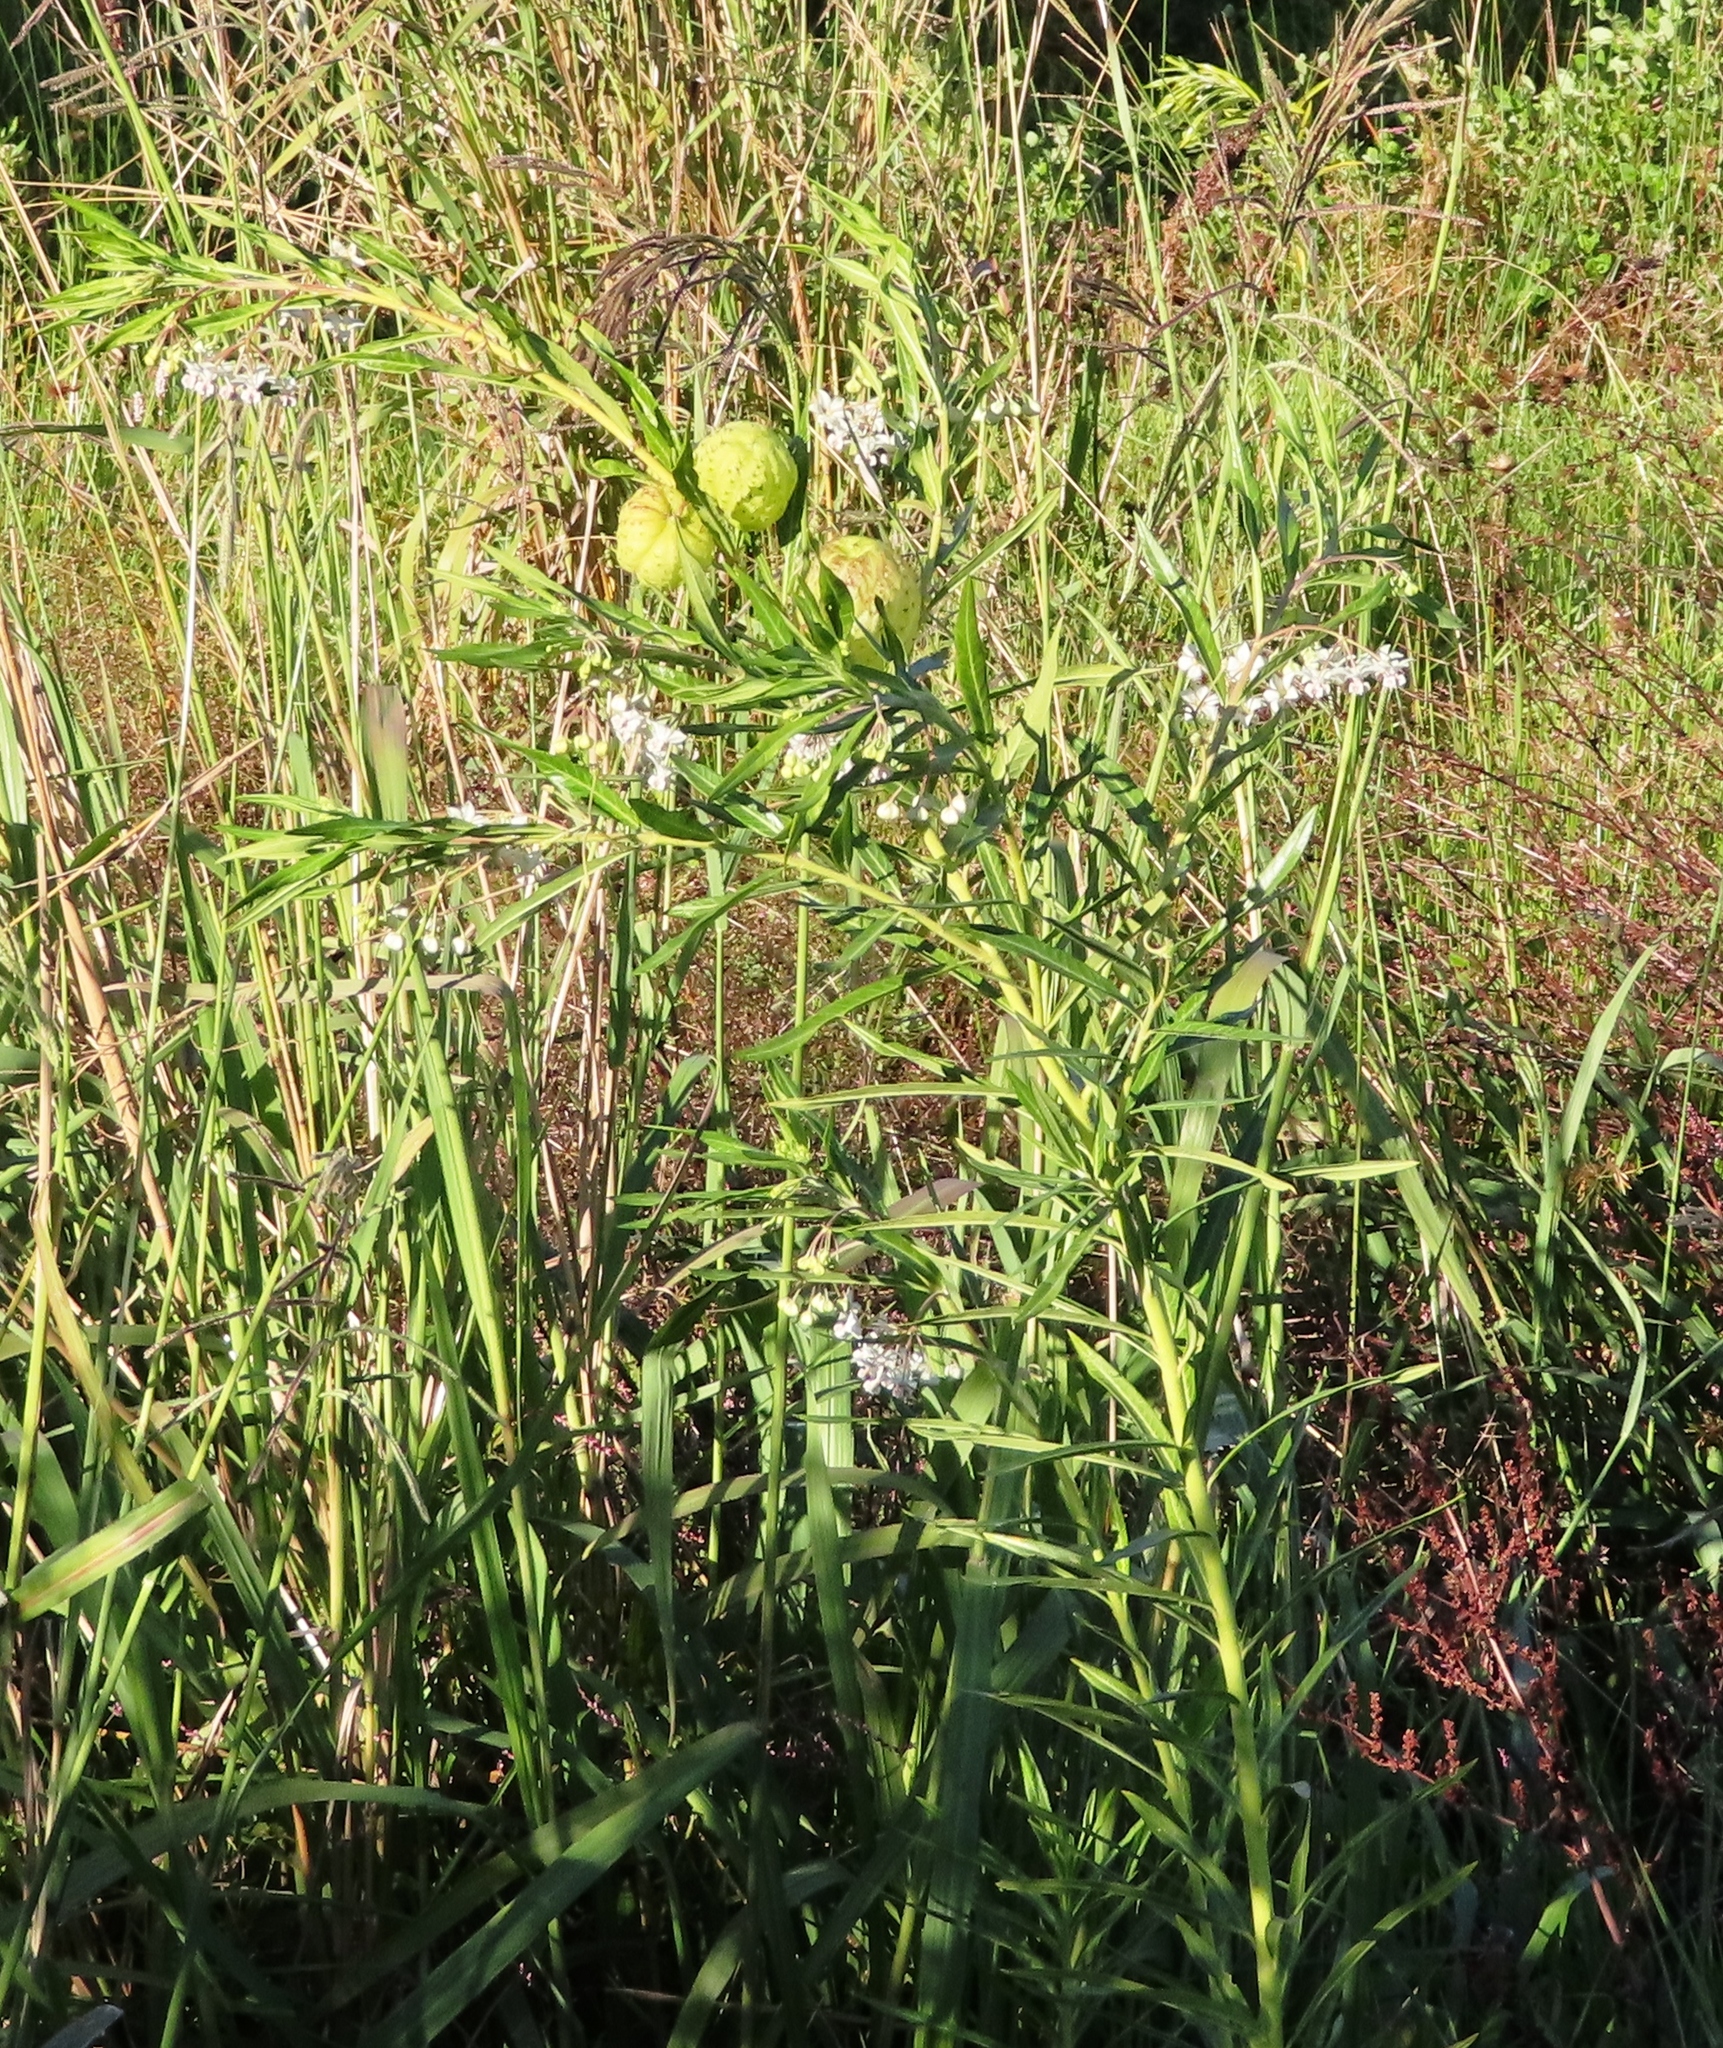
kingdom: Plantae
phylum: Tracheophyta
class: Magnoliopsida
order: Gentianales
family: Apocynaceae
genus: Gomphocarpus
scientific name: Gomphocarpus physocarpus
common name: Balloon cotton bush
